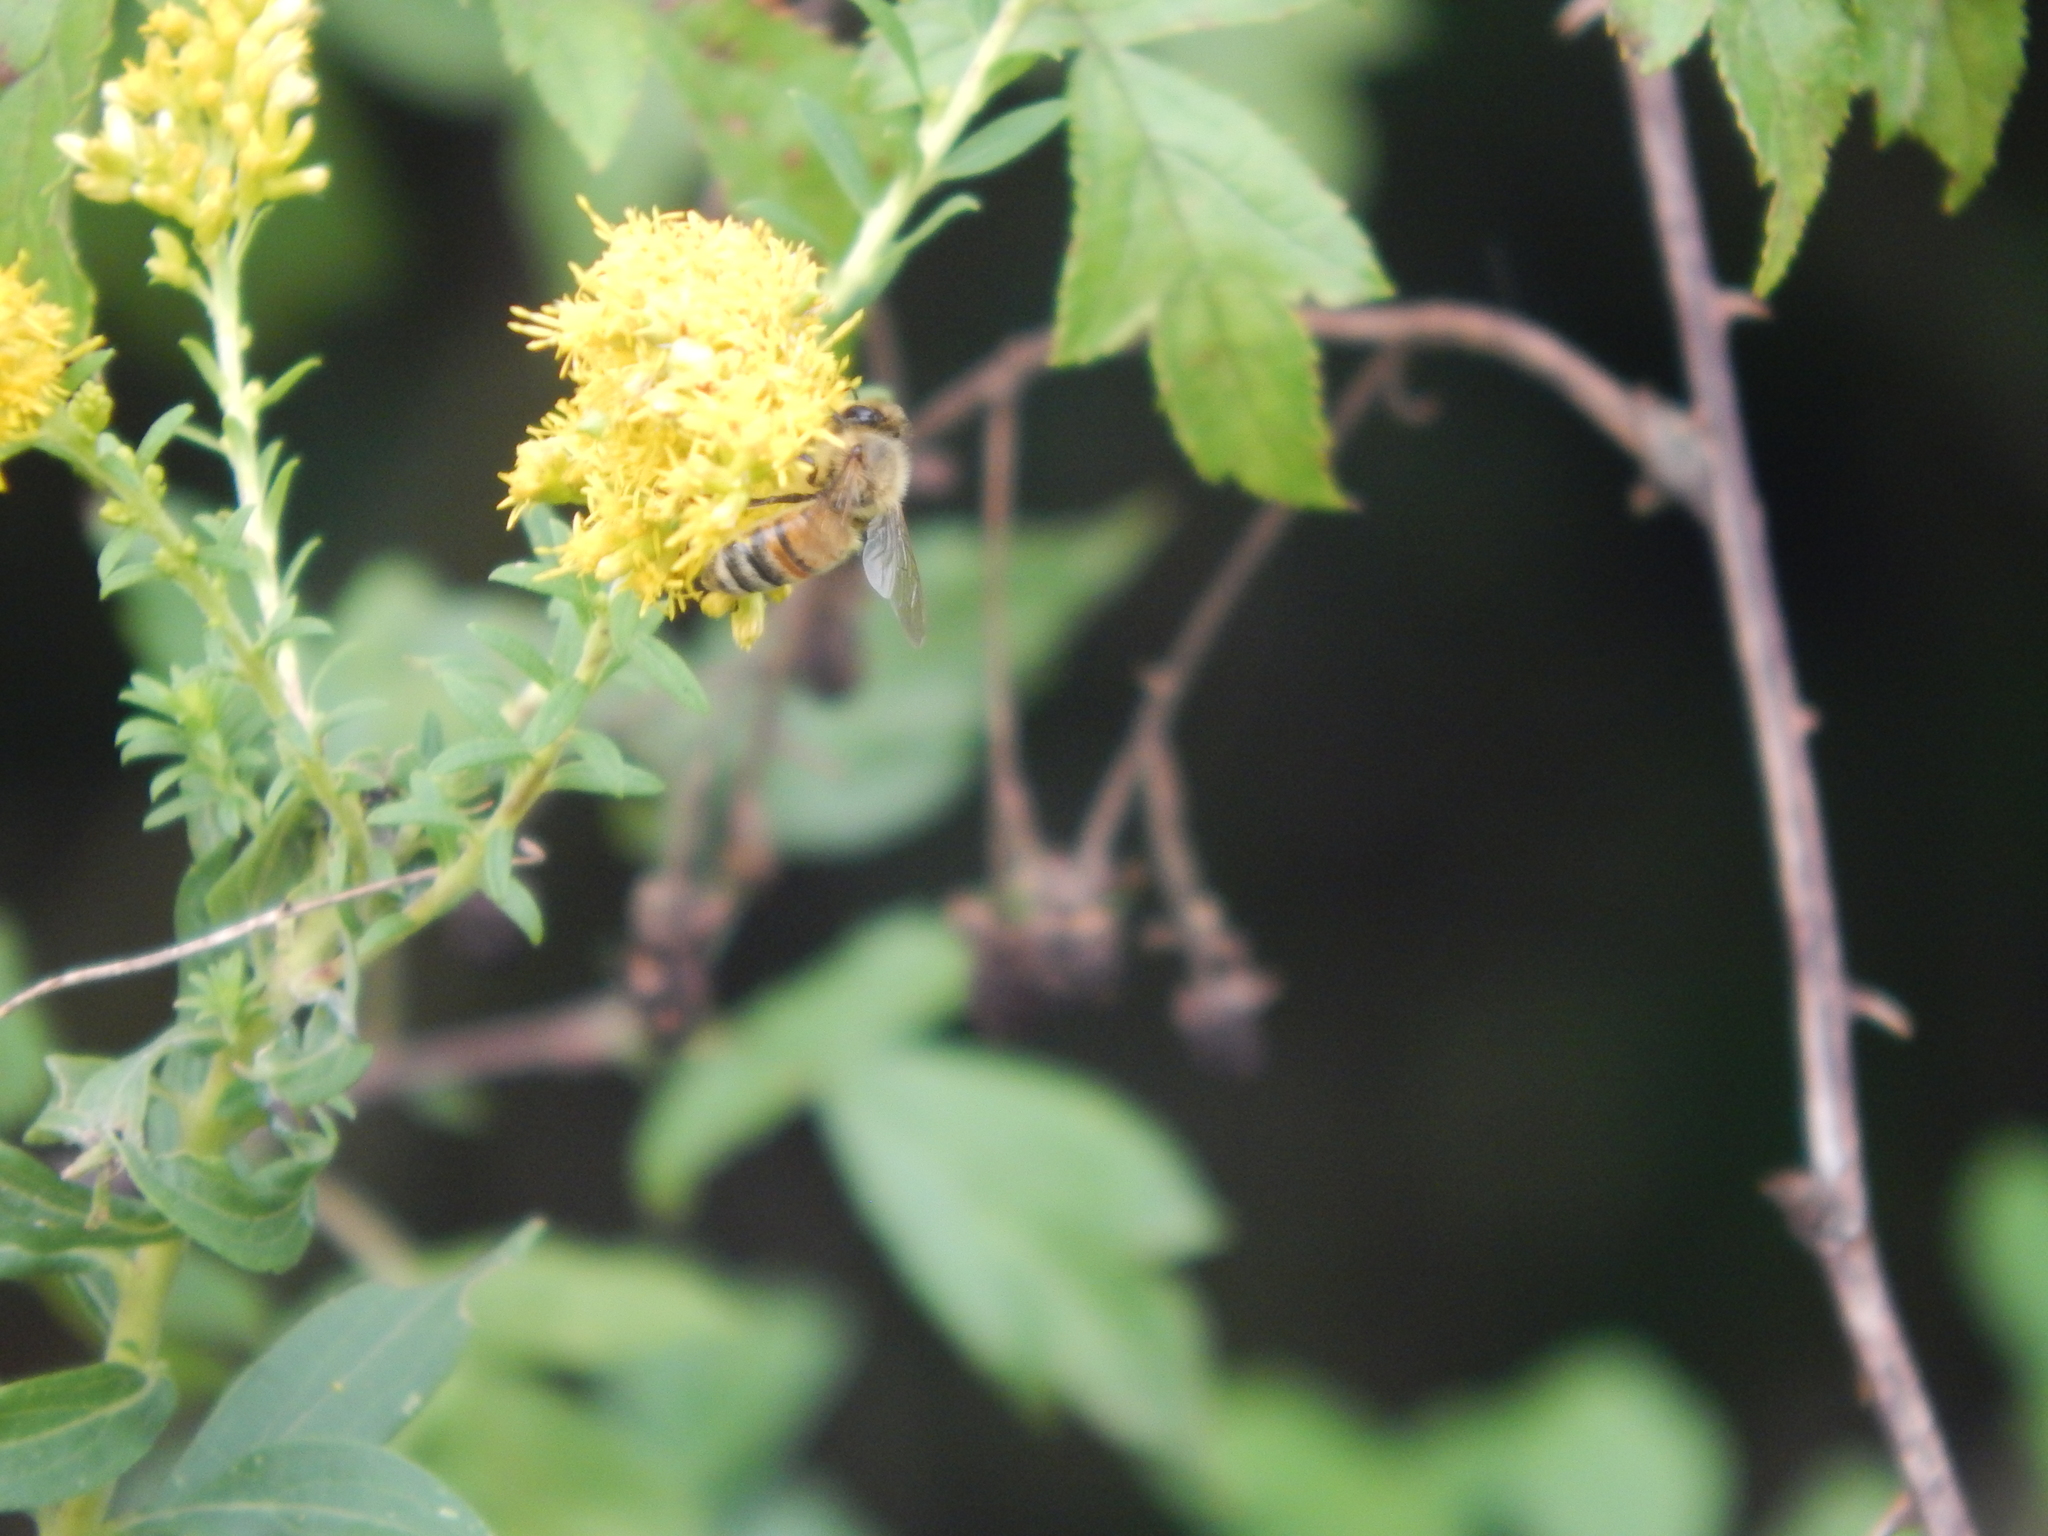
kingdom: Animalia
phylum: Arthropoda
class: Insecta
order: Hymenoptera
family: Apidae
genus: Apis
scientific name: Apis mellifera
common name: Honey bee
